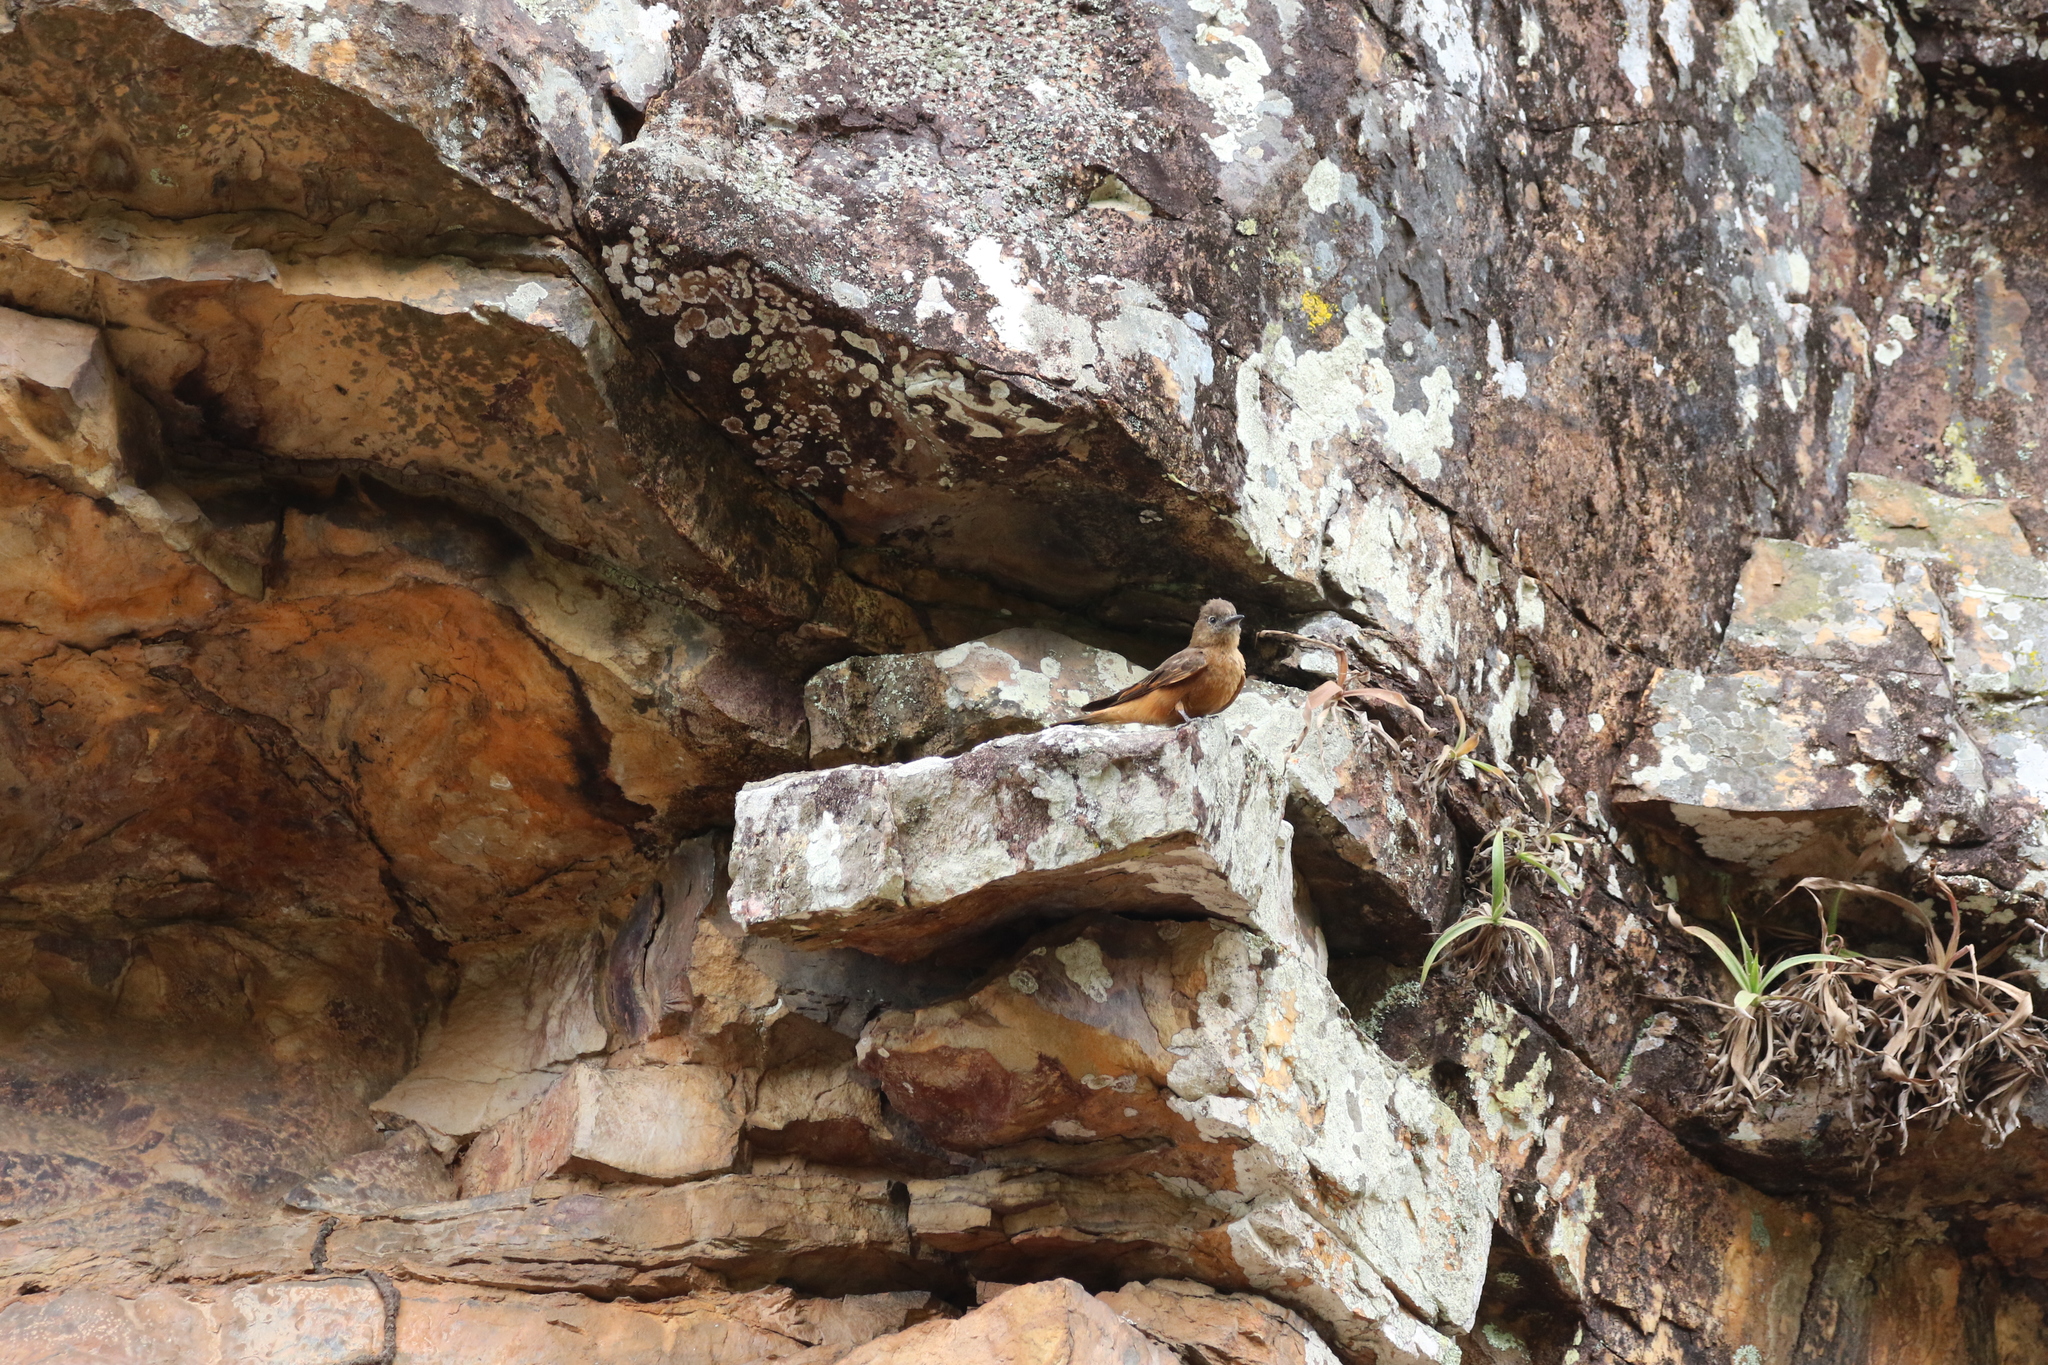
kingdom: Animalia
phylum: Chordata
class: Aves
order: Passeriformes
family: Tyrannidae
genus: Hirundinea
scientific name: Hirundinea ferruginea
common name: Cliff flycatcher
